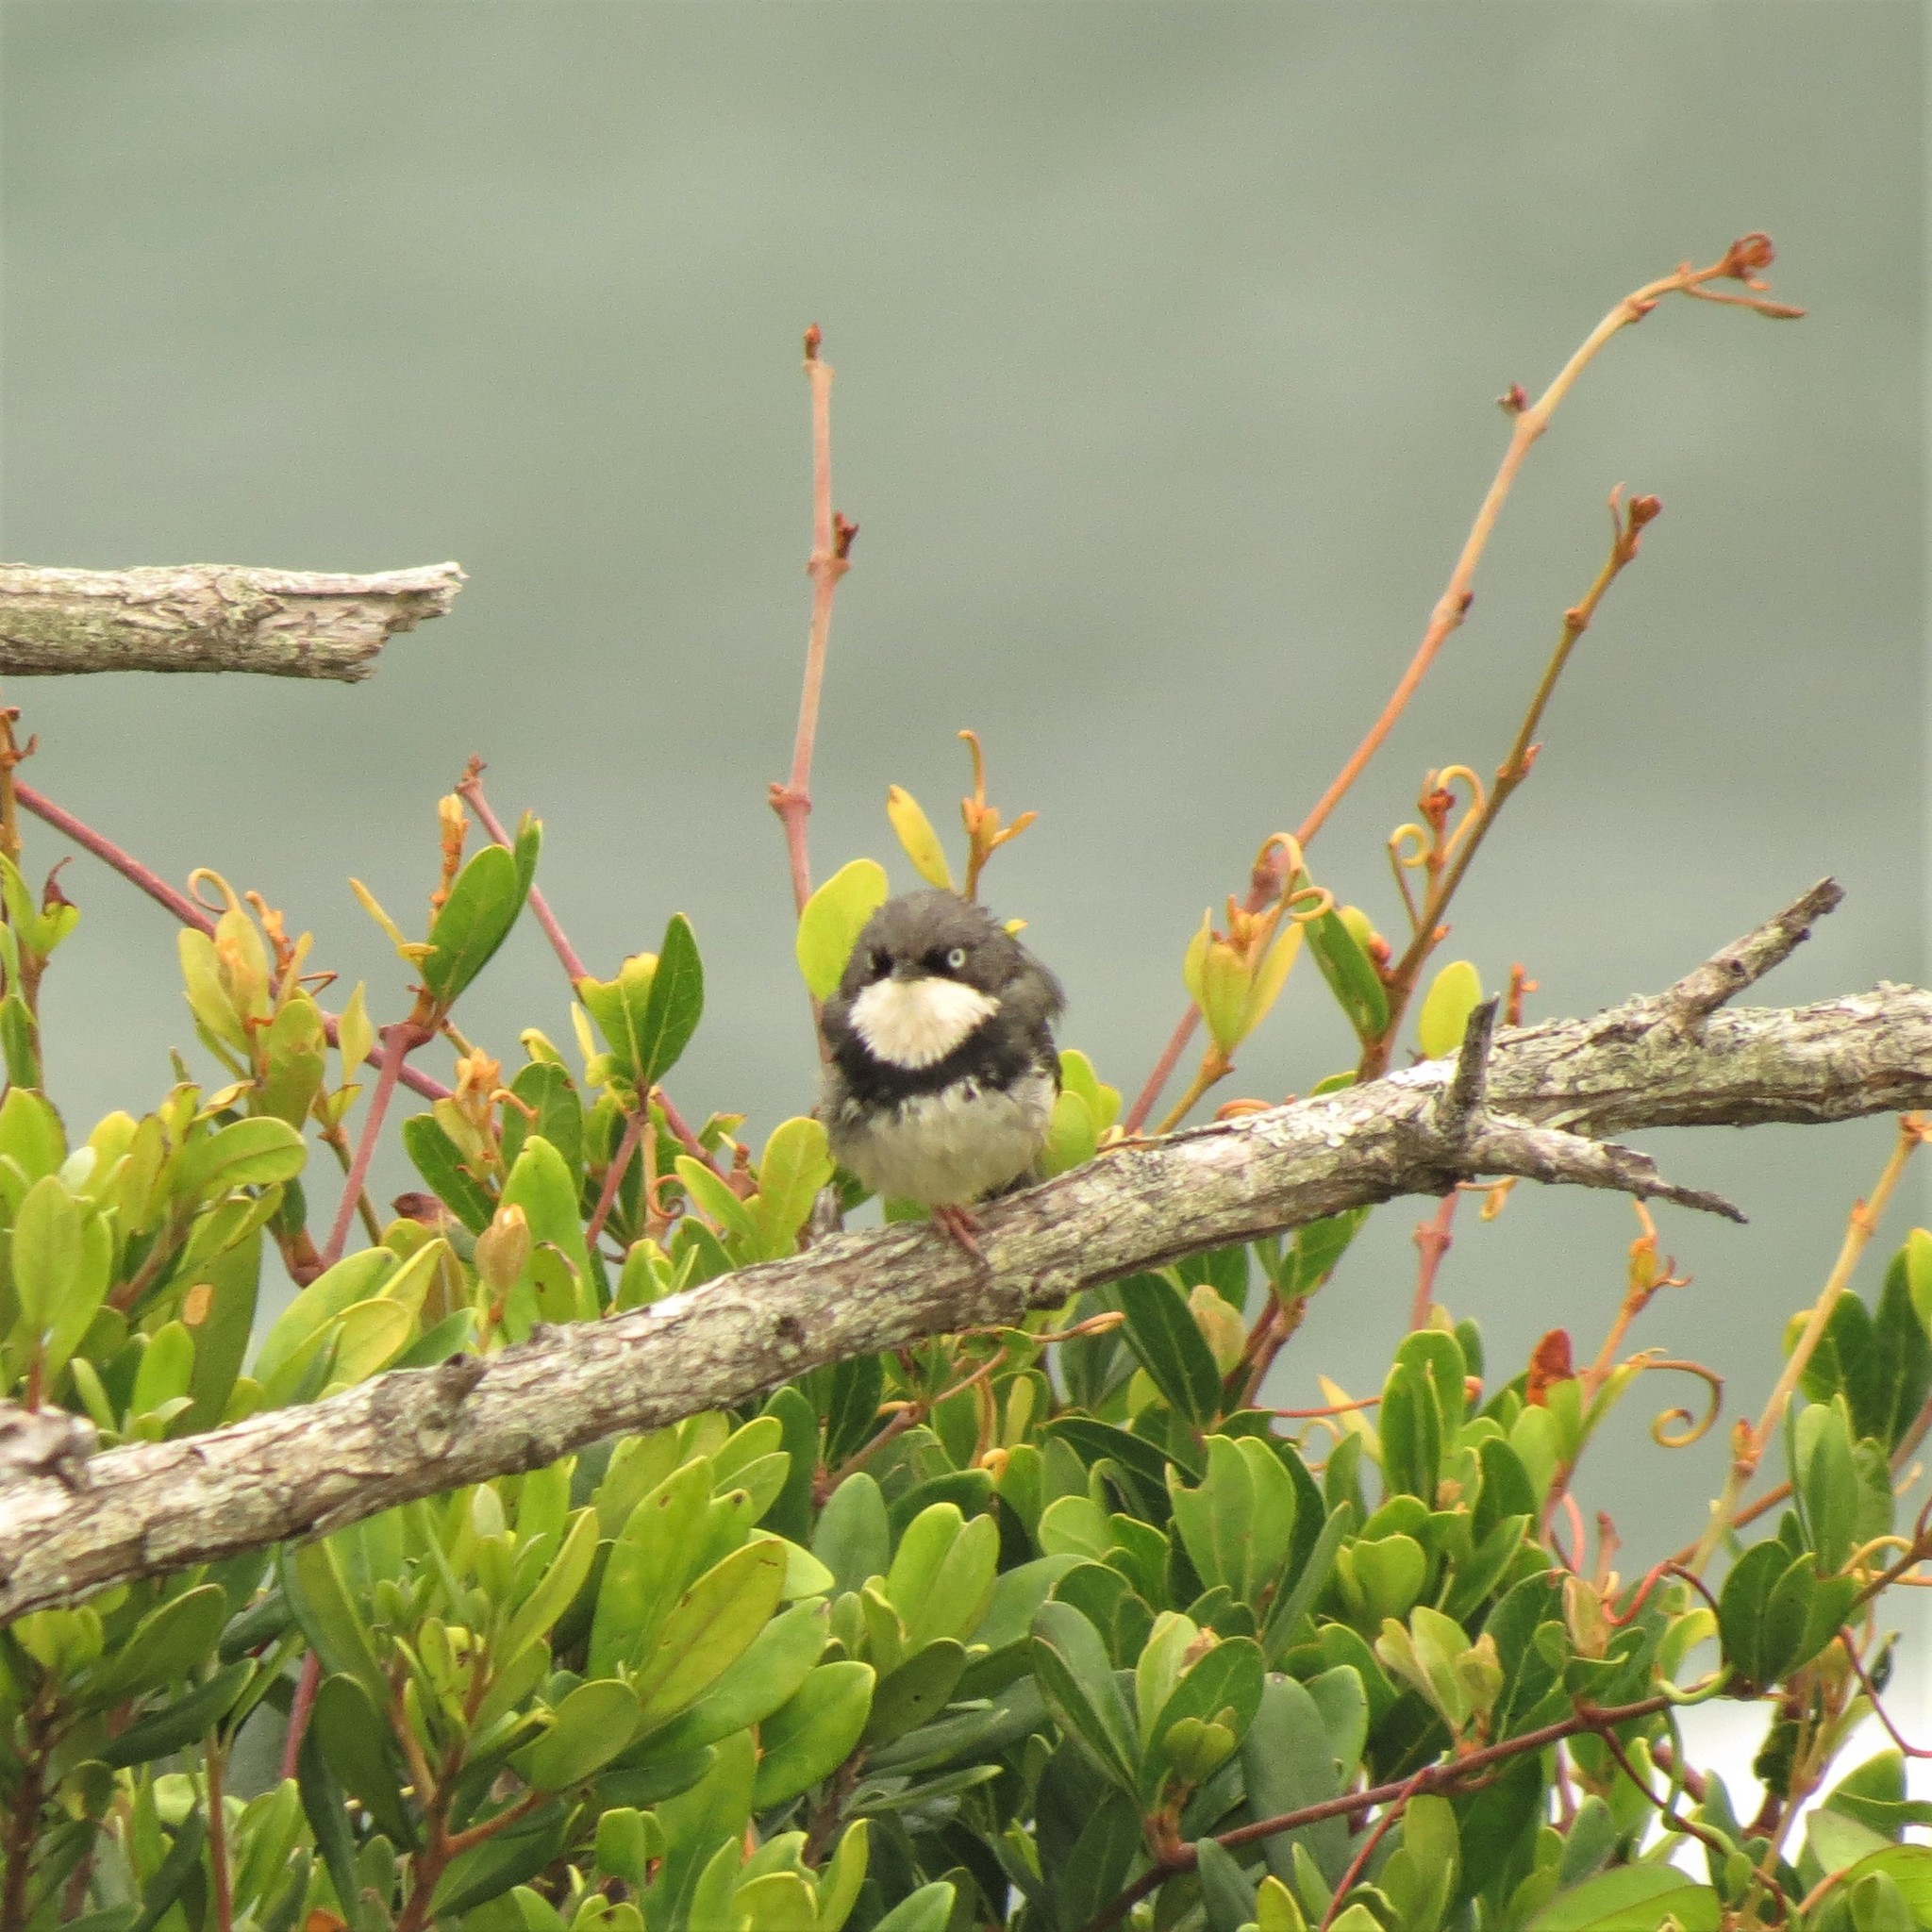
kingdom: Animalia
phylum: Chordata
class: Aves
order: Passeriformes
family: Cisticolidae
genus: Apalis
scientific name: Apalis thoracica
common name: Bar-throated apalis
